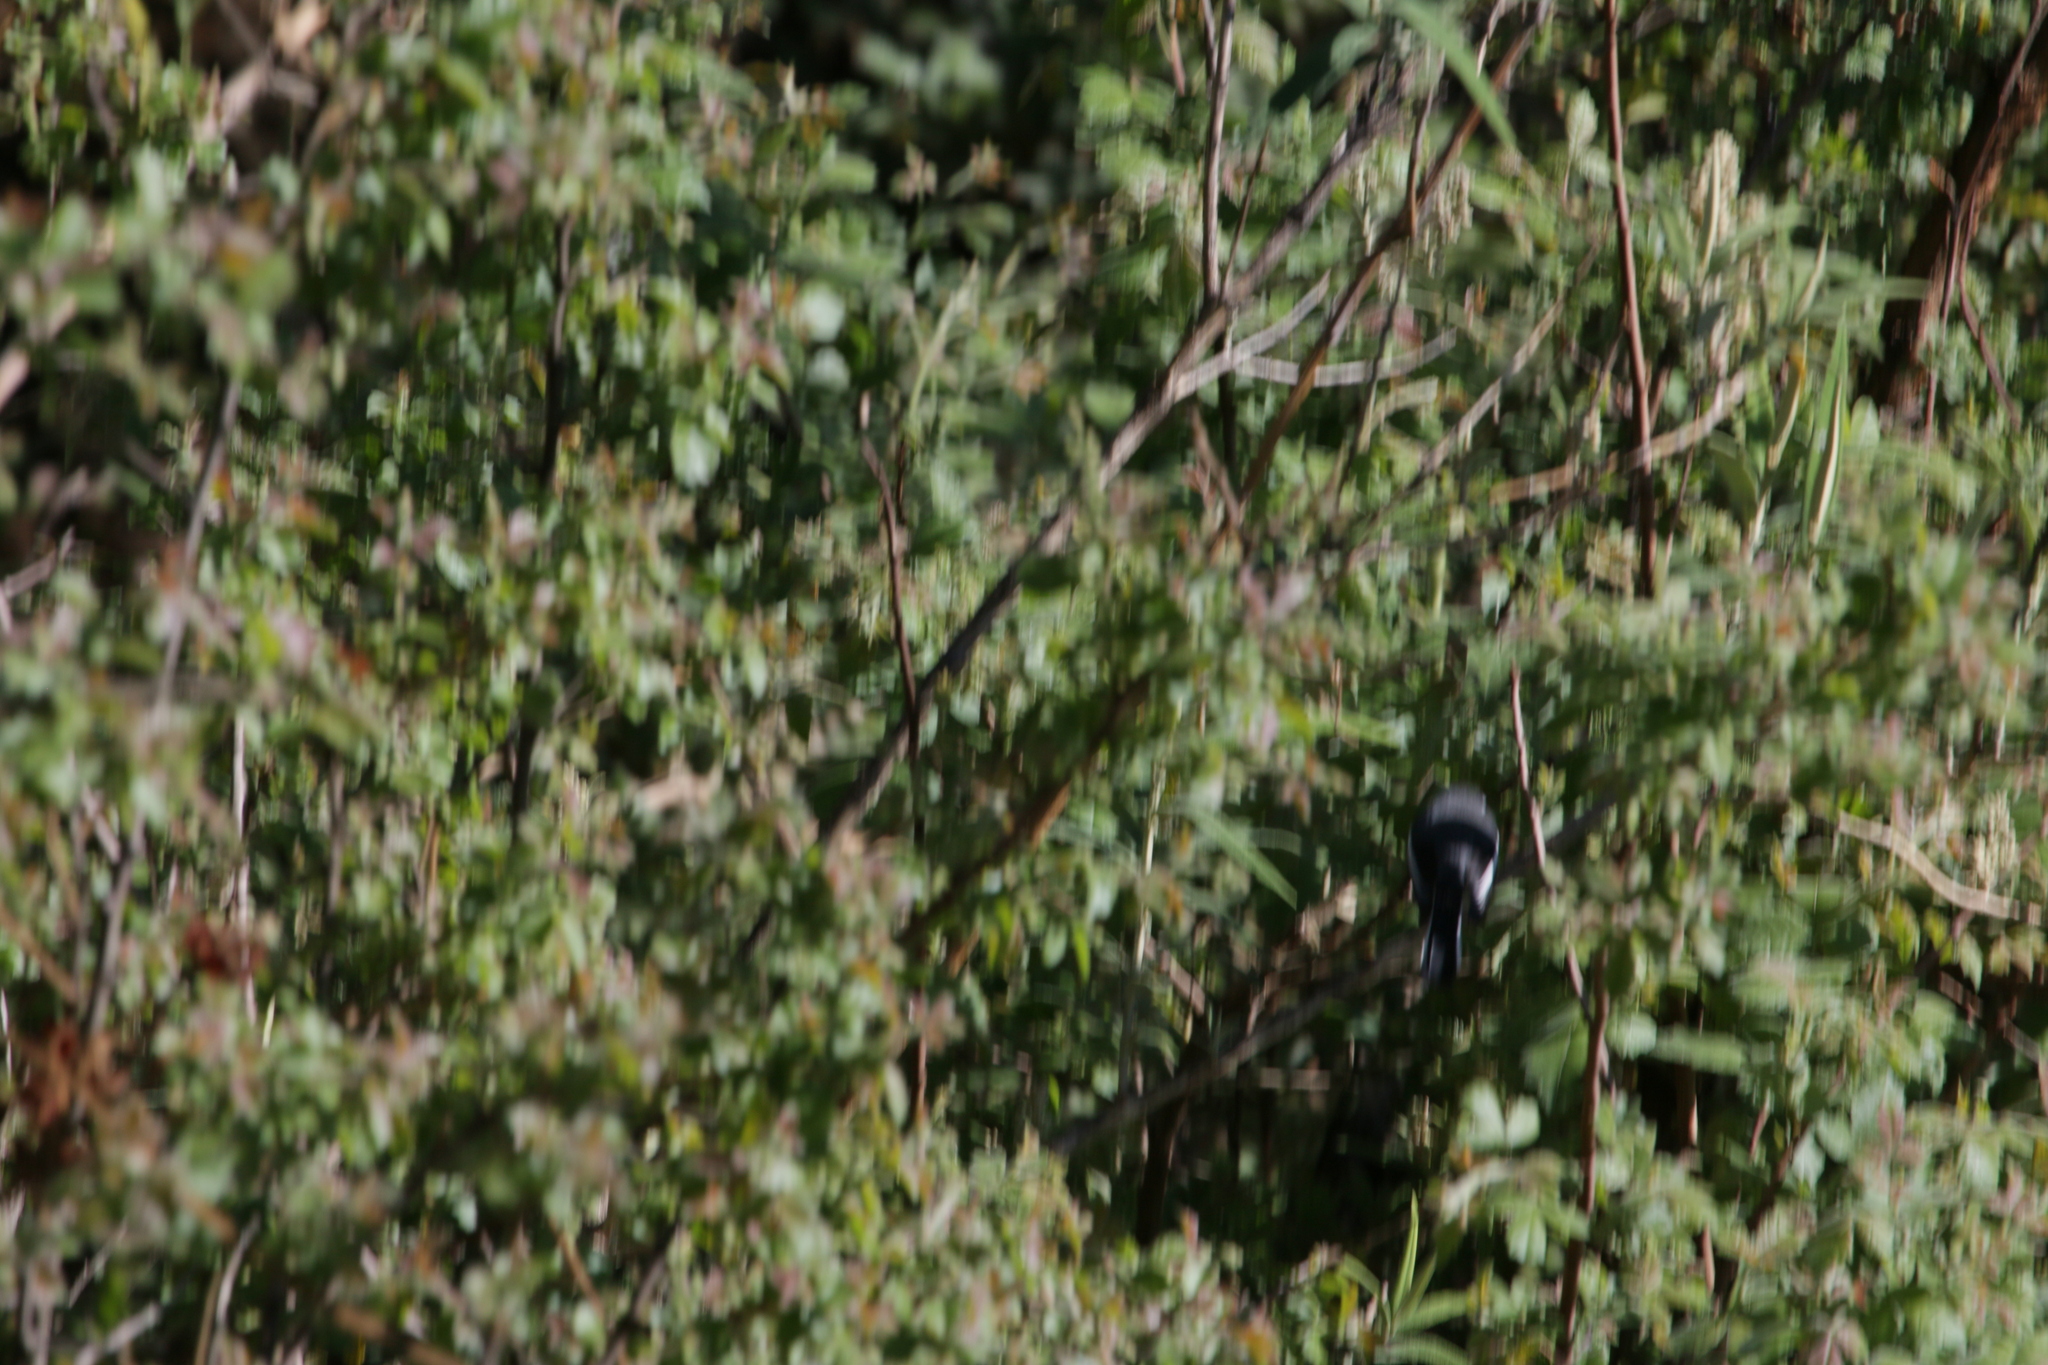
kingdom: Animalia
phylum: Chordata
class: Aves
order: Passeriformes
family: Stenostiridae
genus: Stenostira
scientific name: Stenostira scita
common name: Fairy flycatcher
